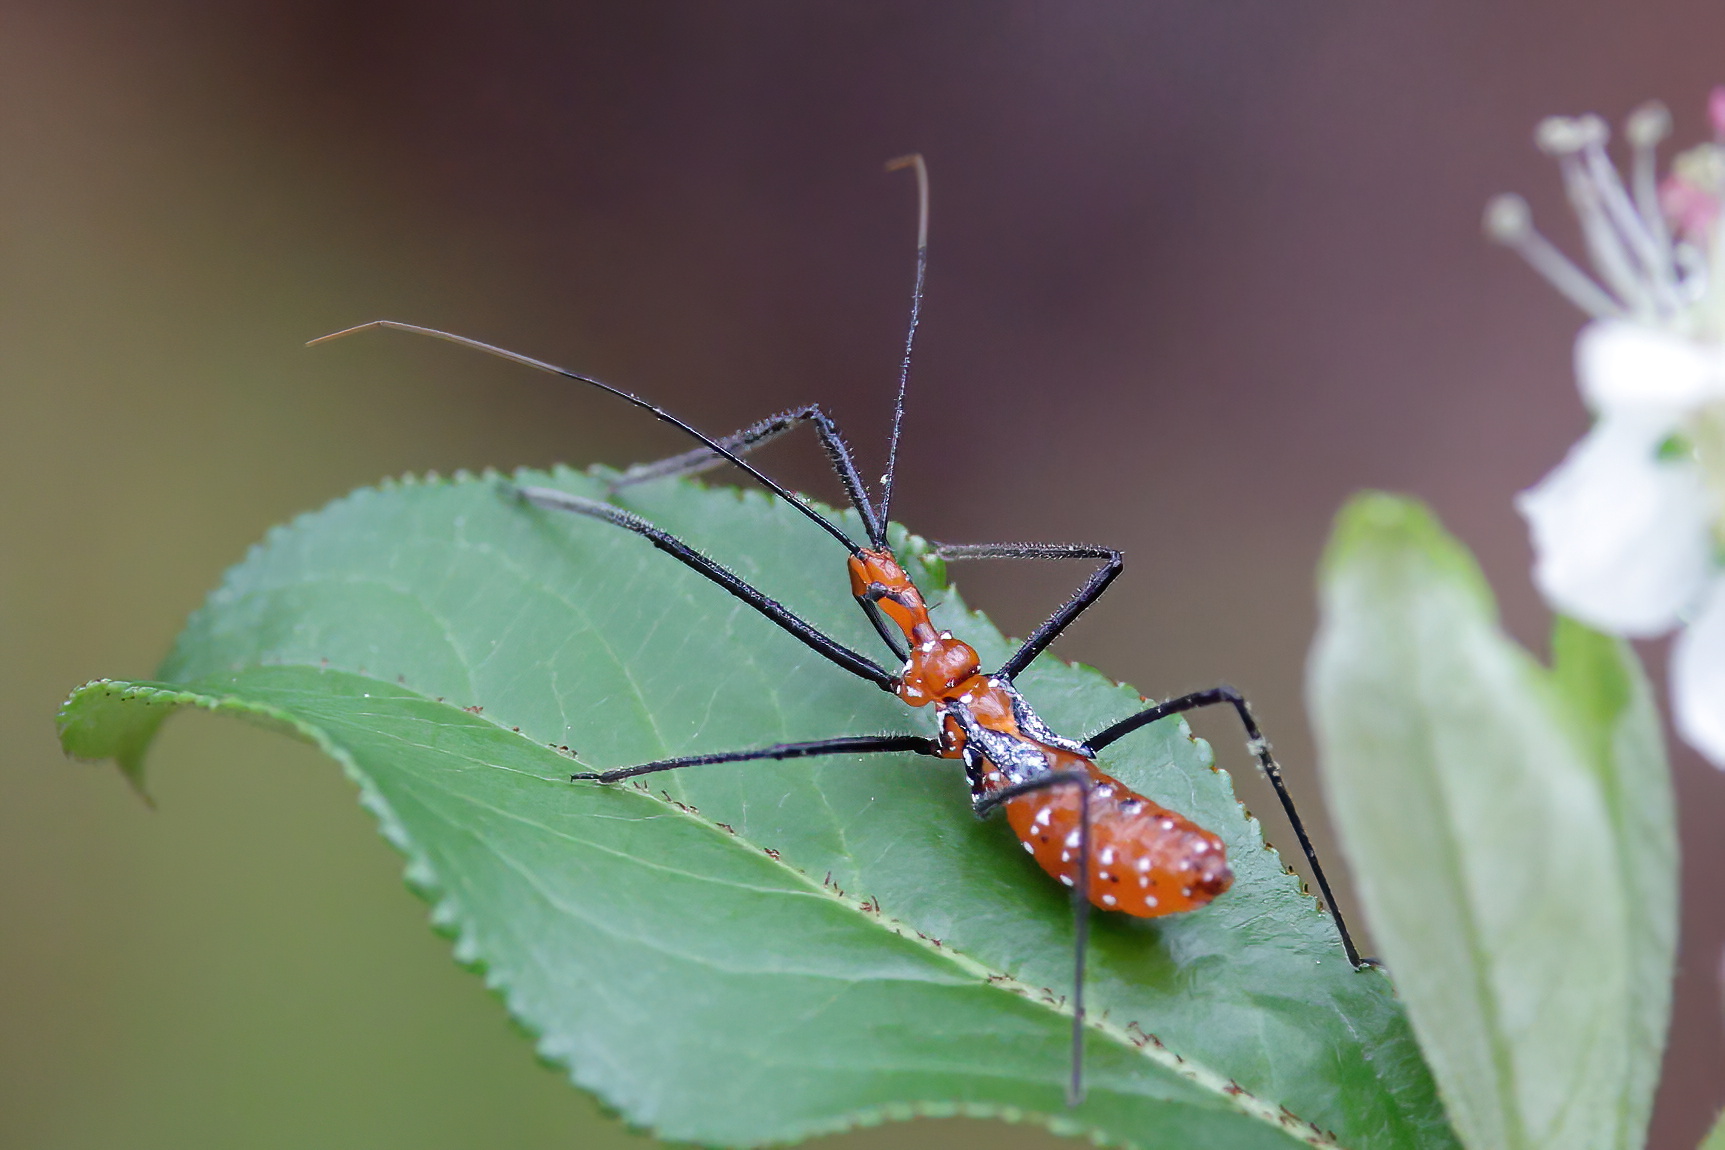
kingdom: Animalia
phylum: Arthropoda
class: Insecta
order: Hemiptera
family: Reduviidae
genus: Zelus
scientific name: Zelus longipes
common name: Milkweed assassin bug
